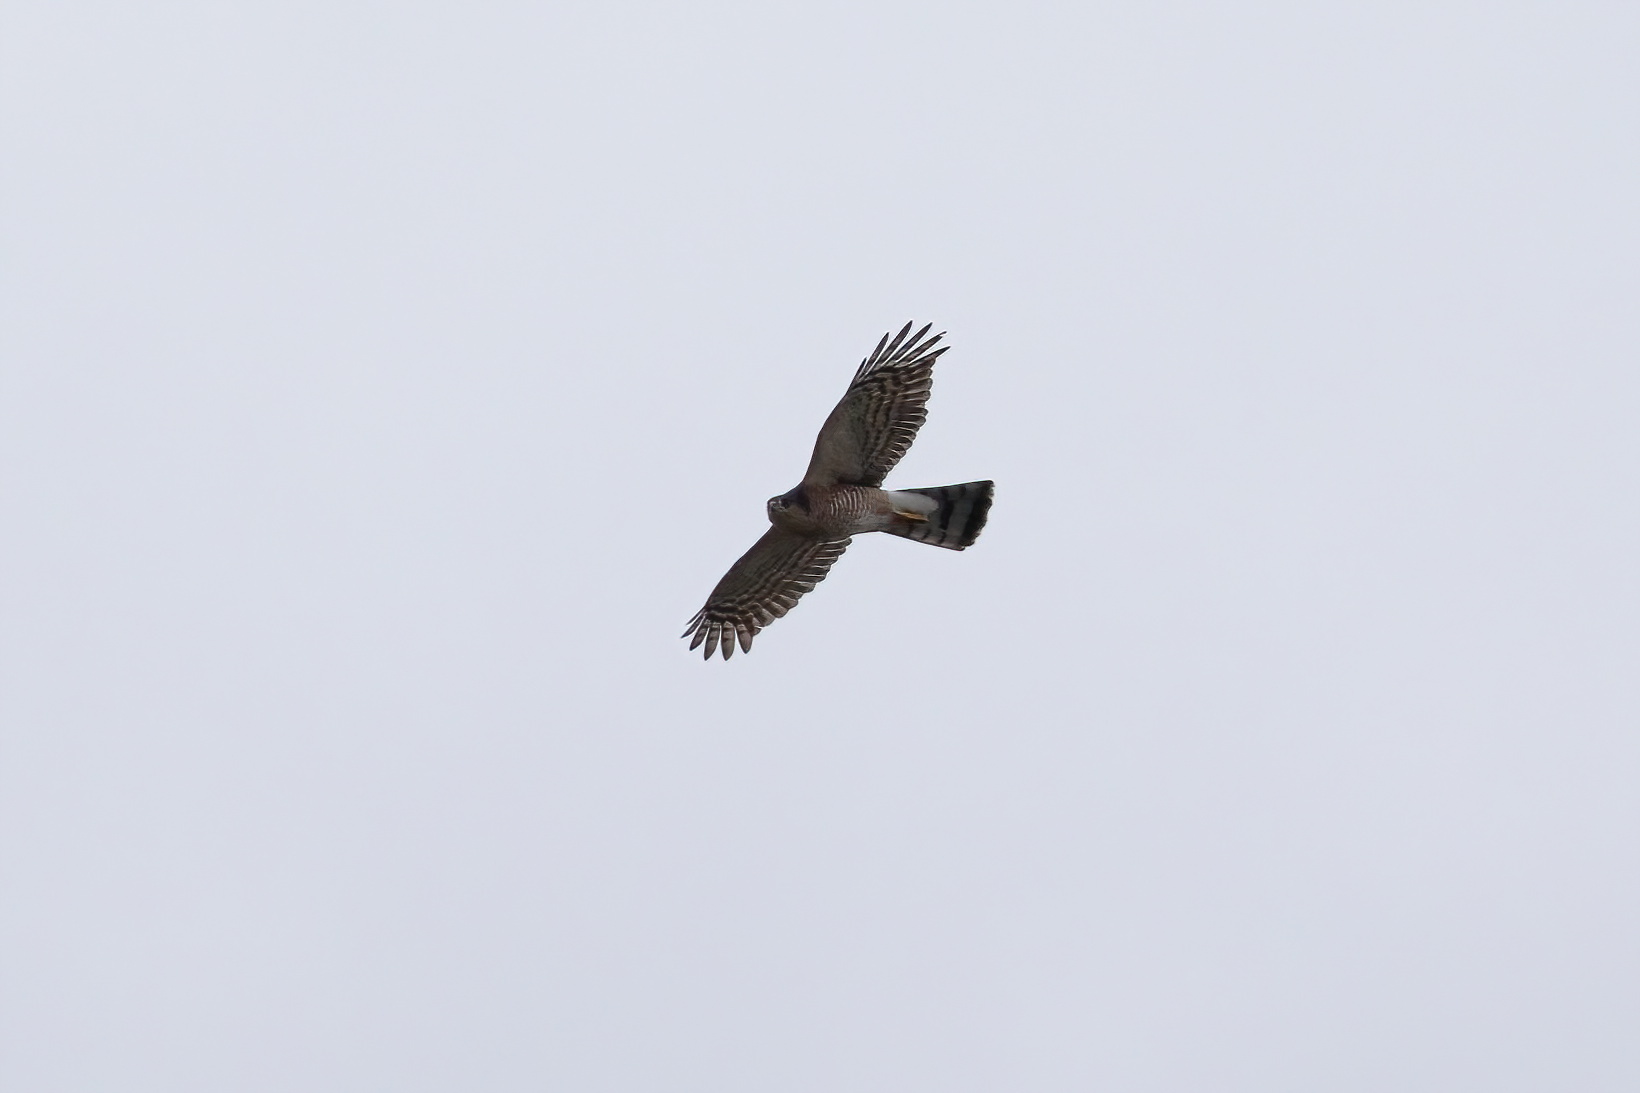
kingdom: Animalia
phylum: Chordata
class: Aves
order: Accipitriformes
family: Accipitridae
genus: Accipiter
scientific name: Accipiter striatus
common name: Sharp-shinned hawk
